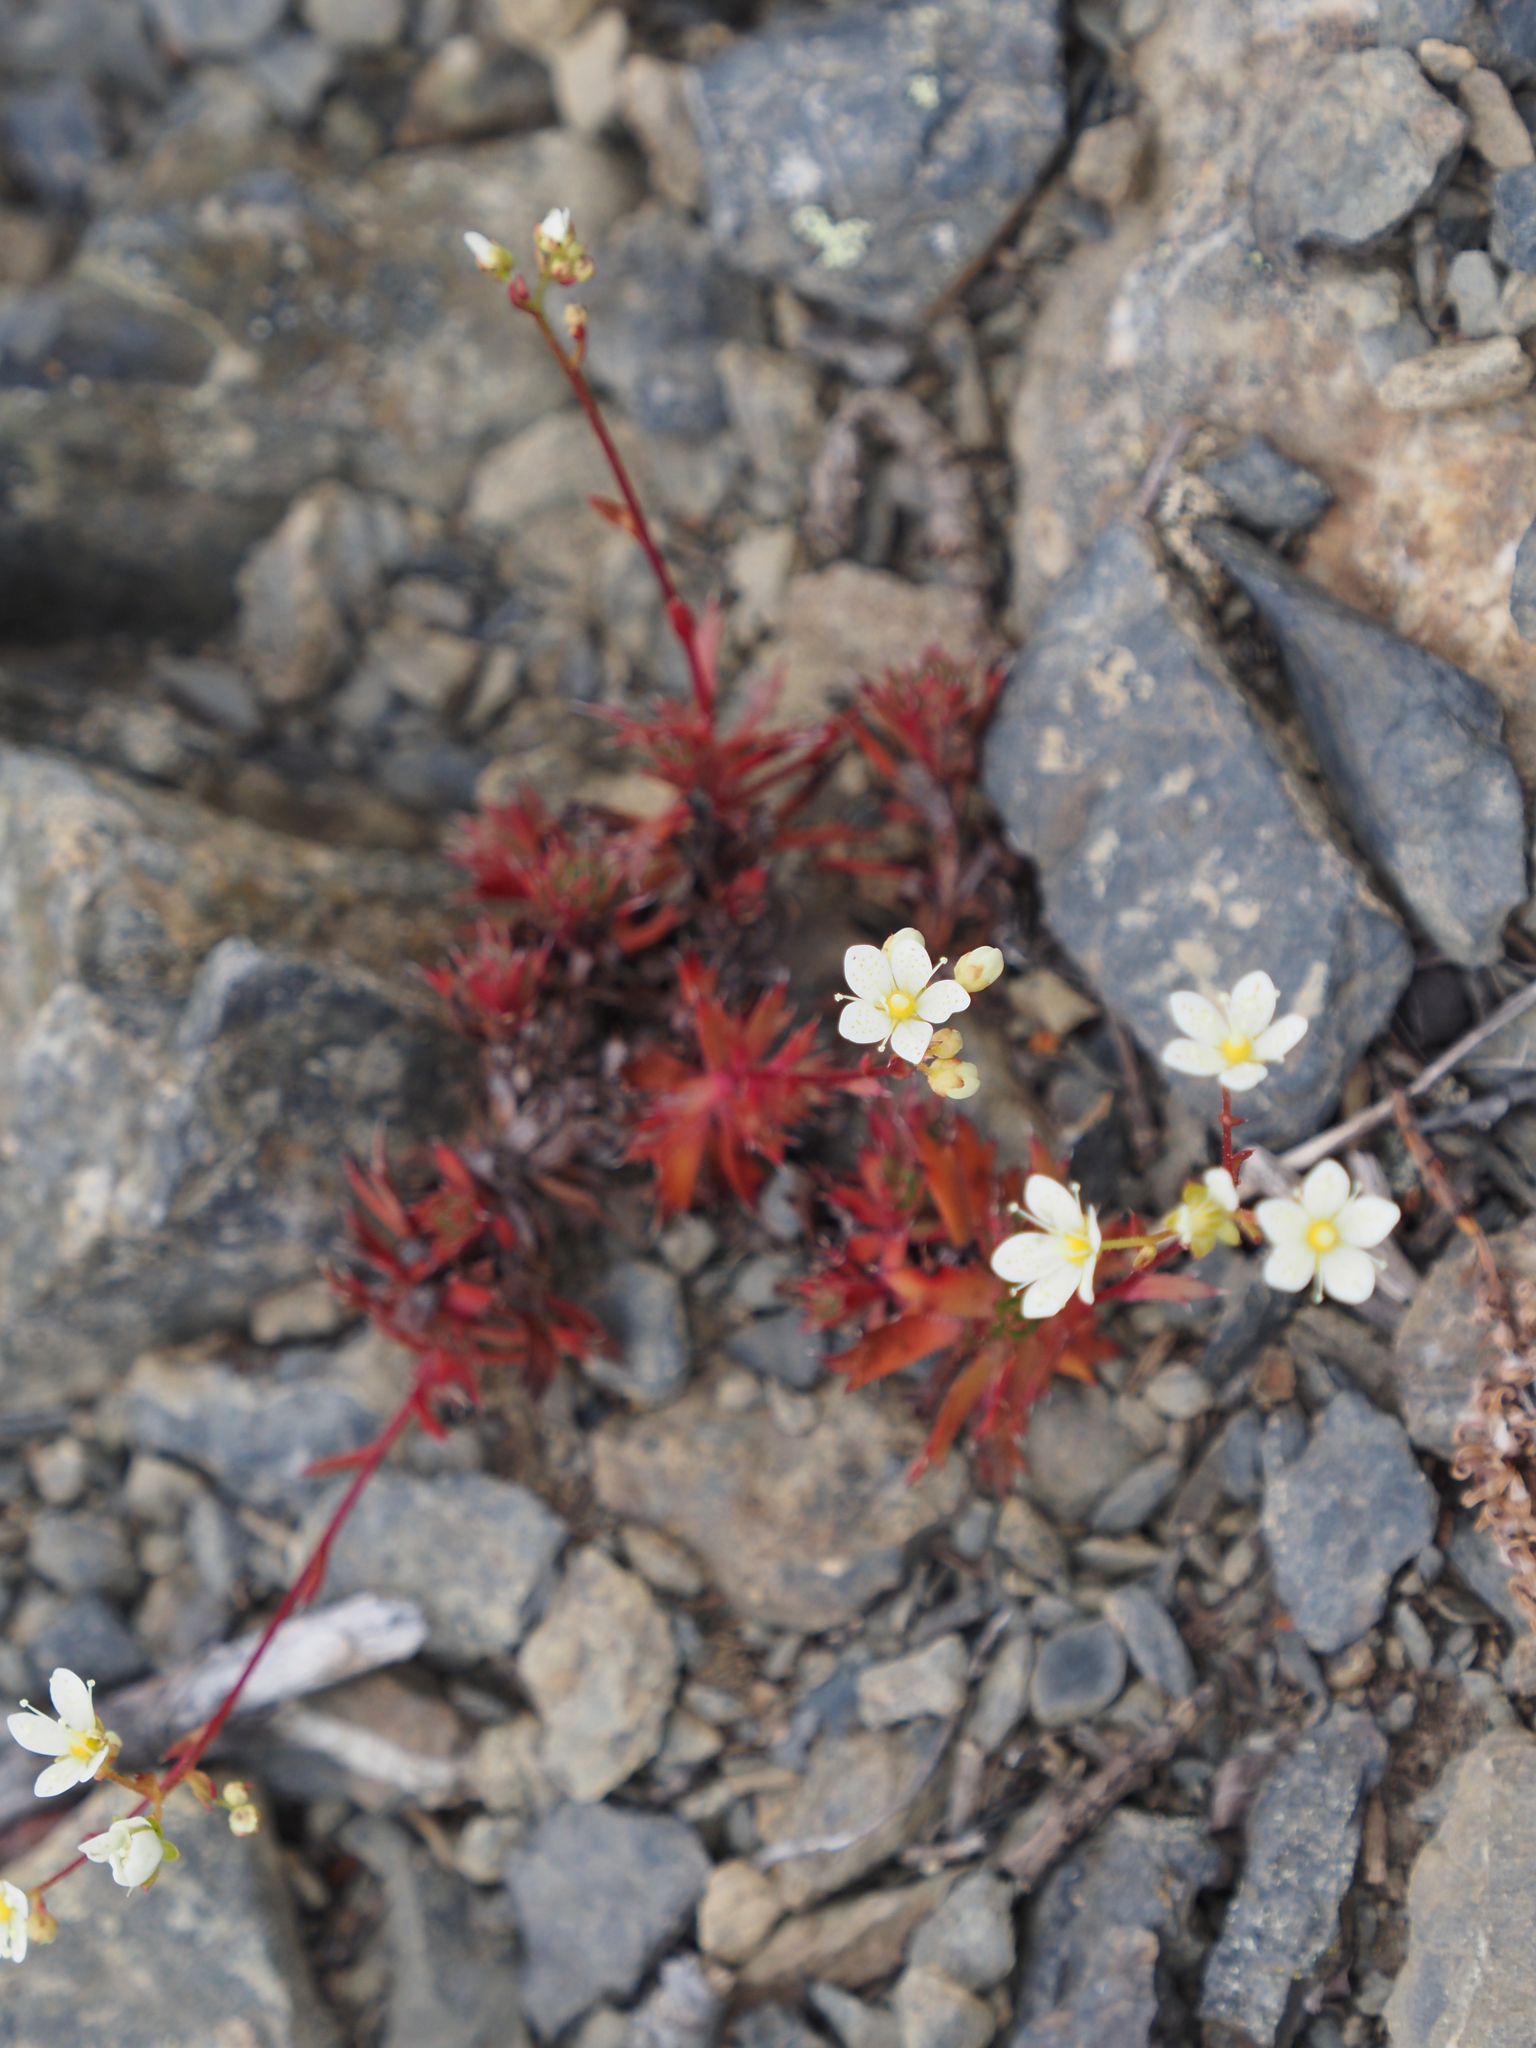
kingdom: Plantae
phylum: Tracheophyta
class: Magnoliopsida
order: Saxifragales
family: Saxifragaceae
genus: Saxifraga
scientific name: Saxifraga tricuspidata
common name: Prickly saxifrage
